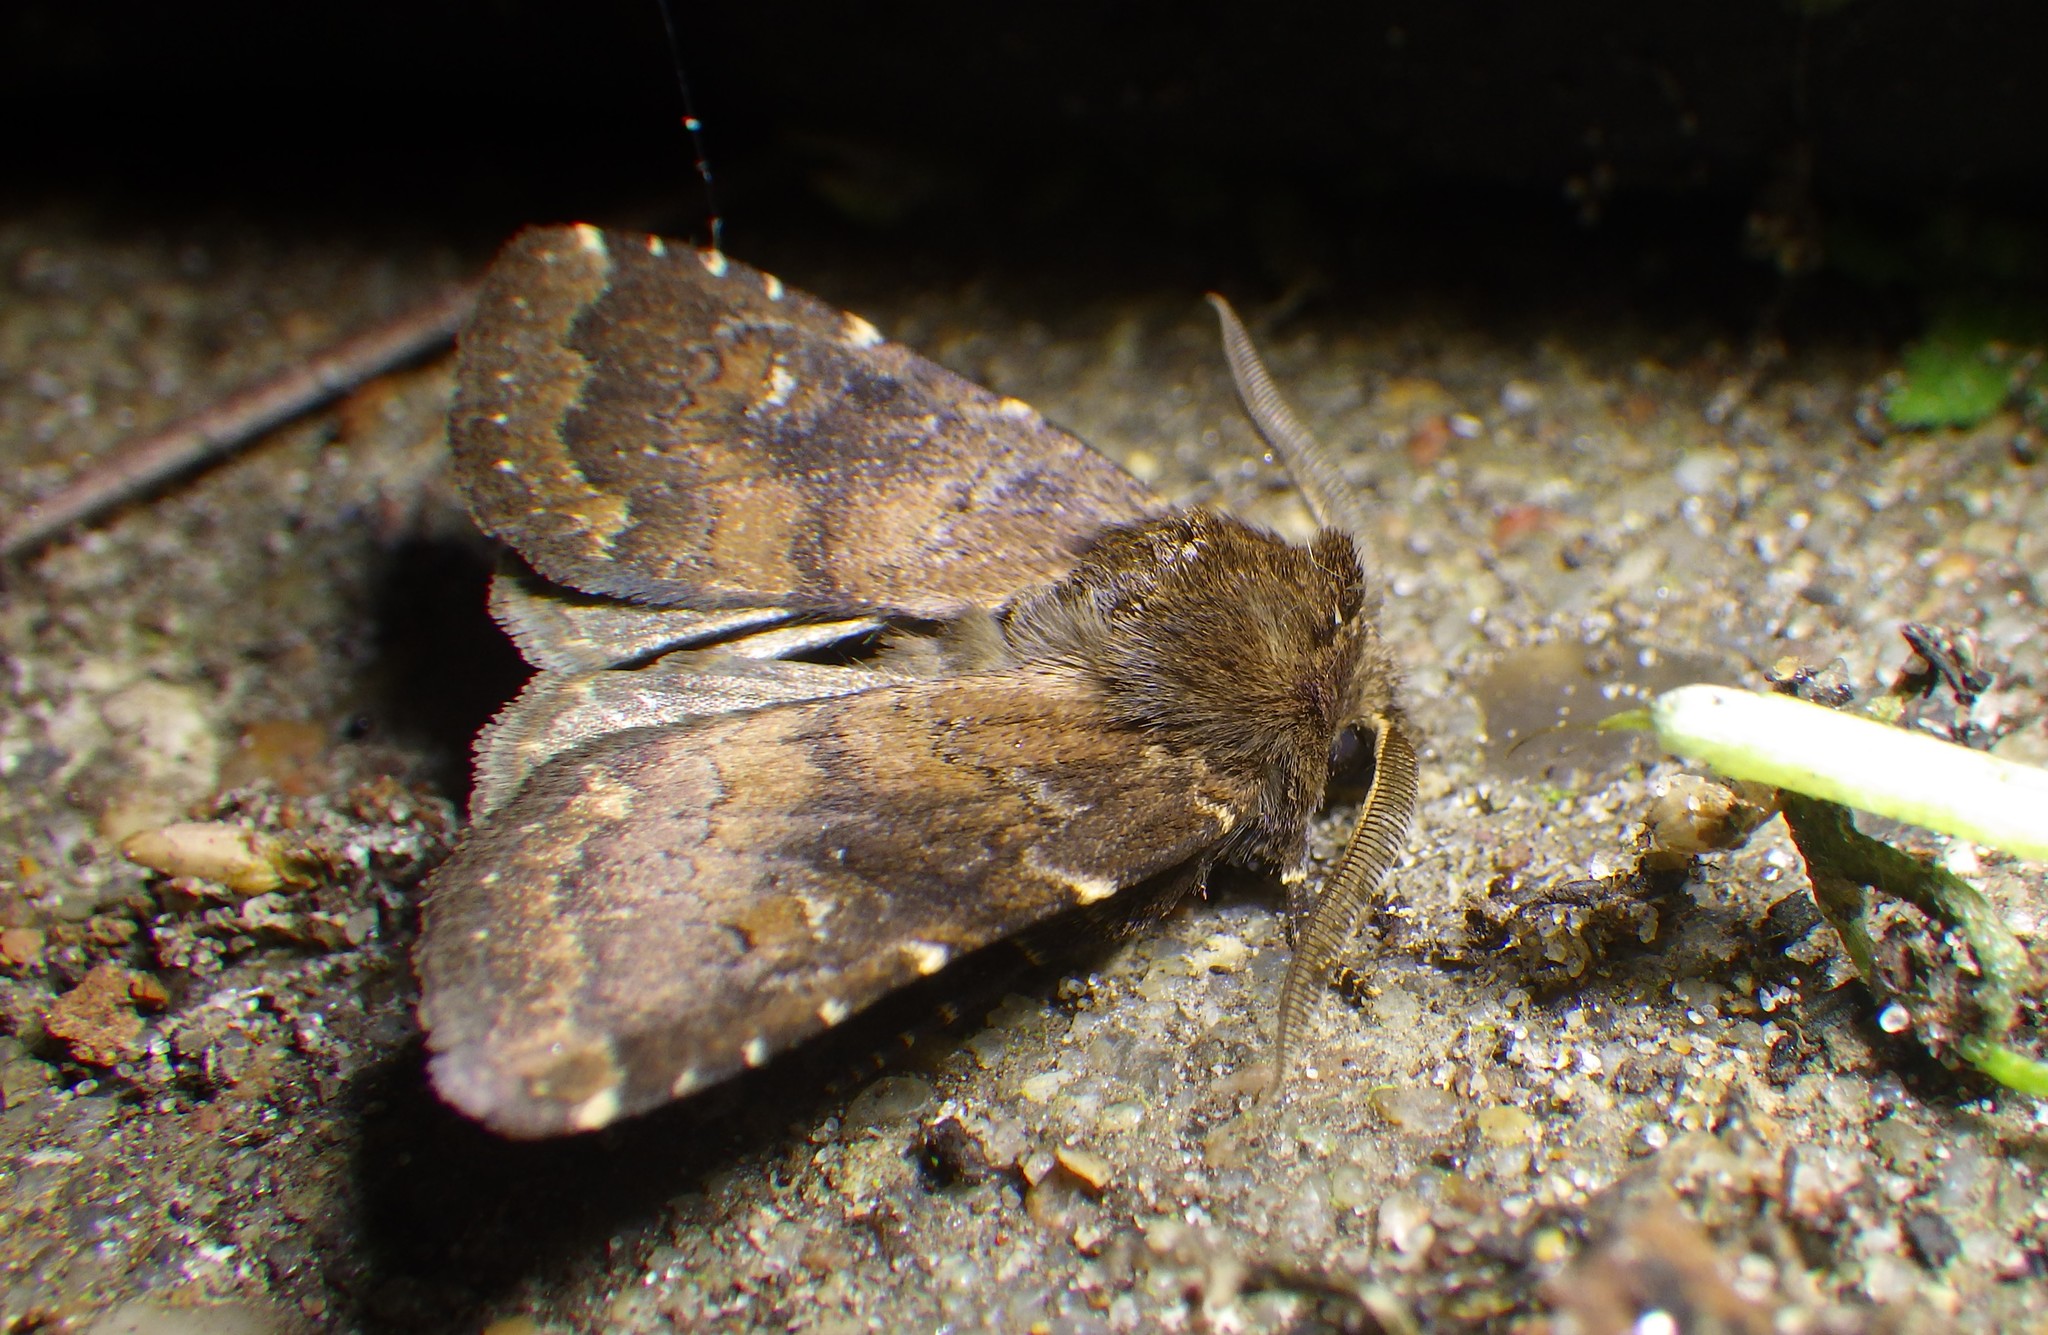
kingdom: Animalia
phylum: Arthropoda
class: Insecta
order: Lepidoptera
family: Noctuidae
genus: Charanyca
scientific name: Charanyca ferruginea
